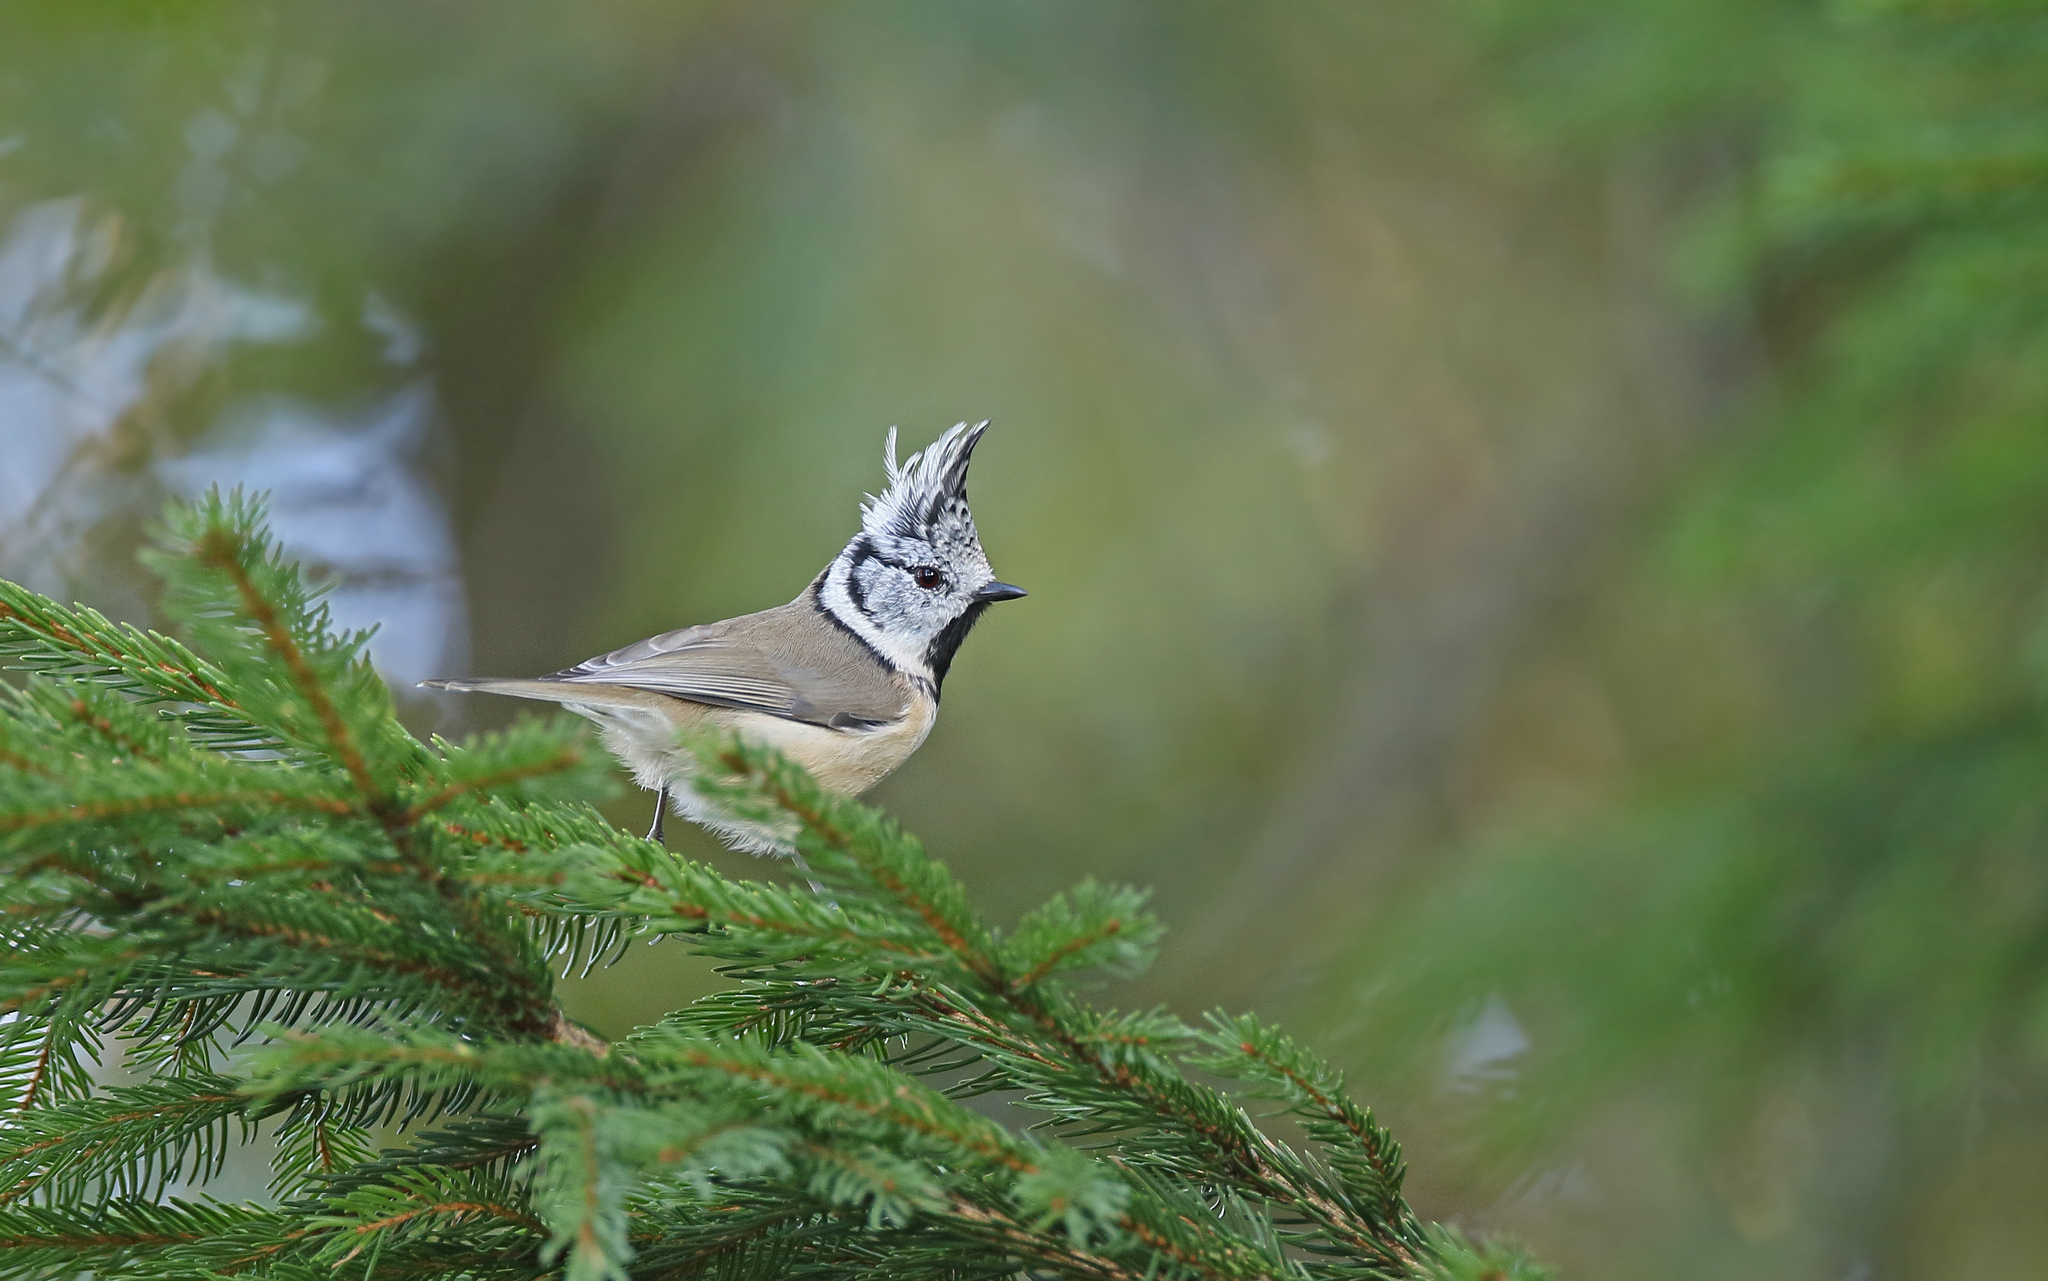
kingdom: Animalia
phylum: Chordata
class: Aves
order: Passeriformes
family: Paridae
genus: Lophophanes
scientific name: Lophophanes cristatus
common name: European crested tit
